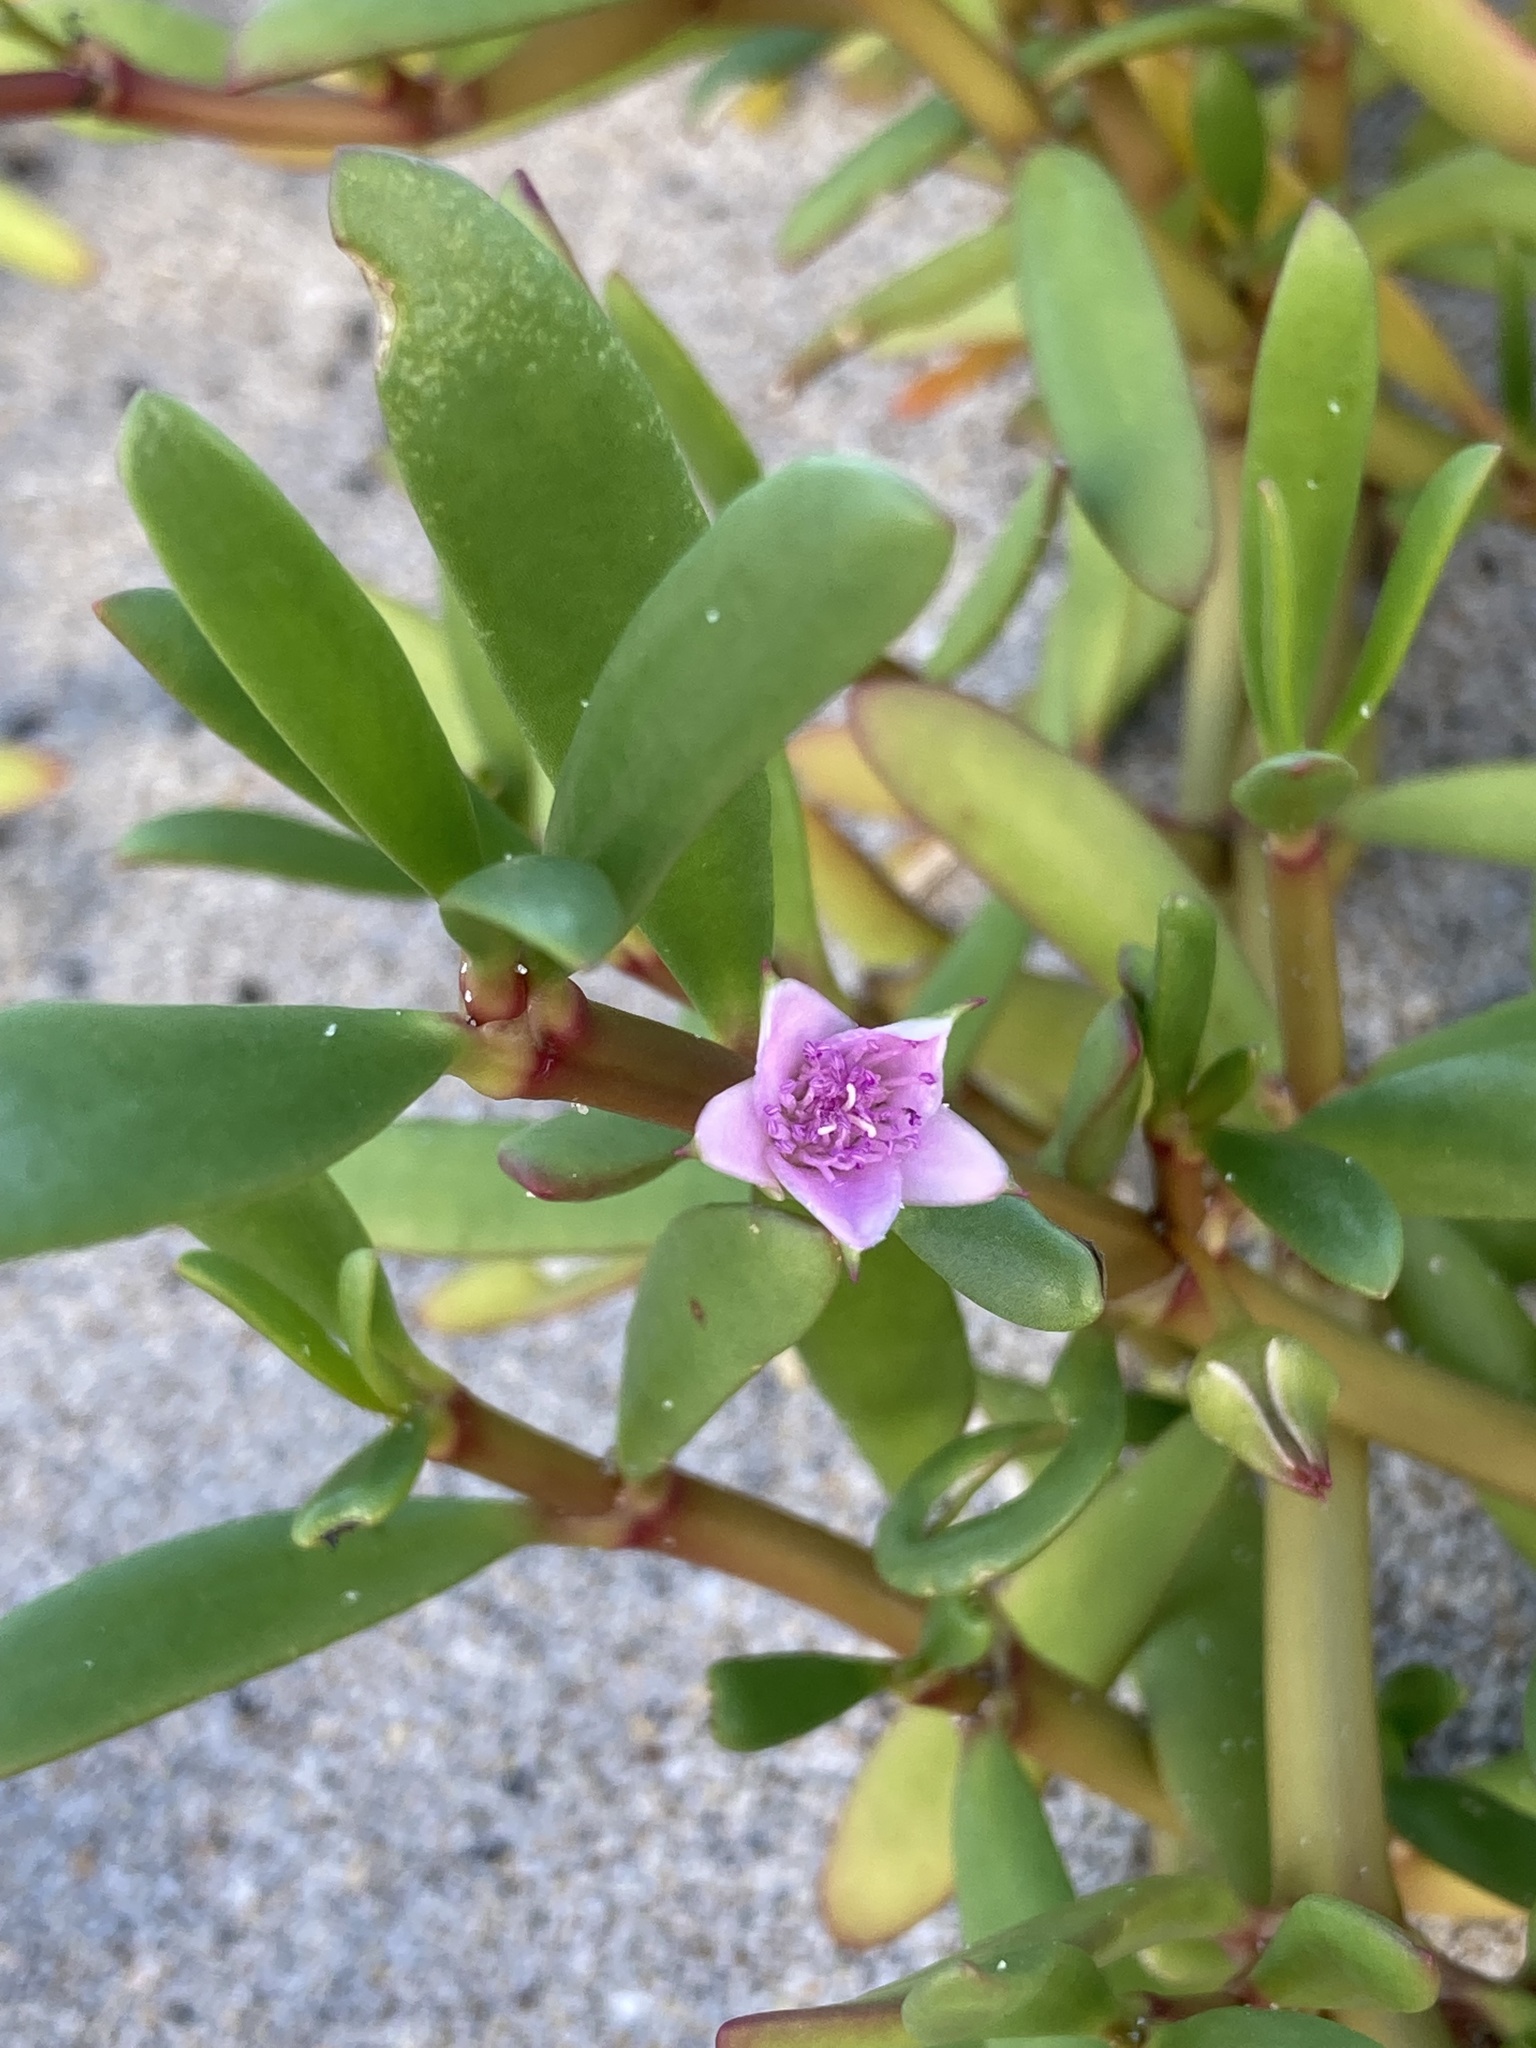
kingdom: Plantae
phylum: Tracheophyta
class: Magnoliopsida
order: Caryophyllales
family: Aizoaceae
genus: Sesuvium
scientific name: Sesuvium portulacastrum
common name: Sea-purslane
